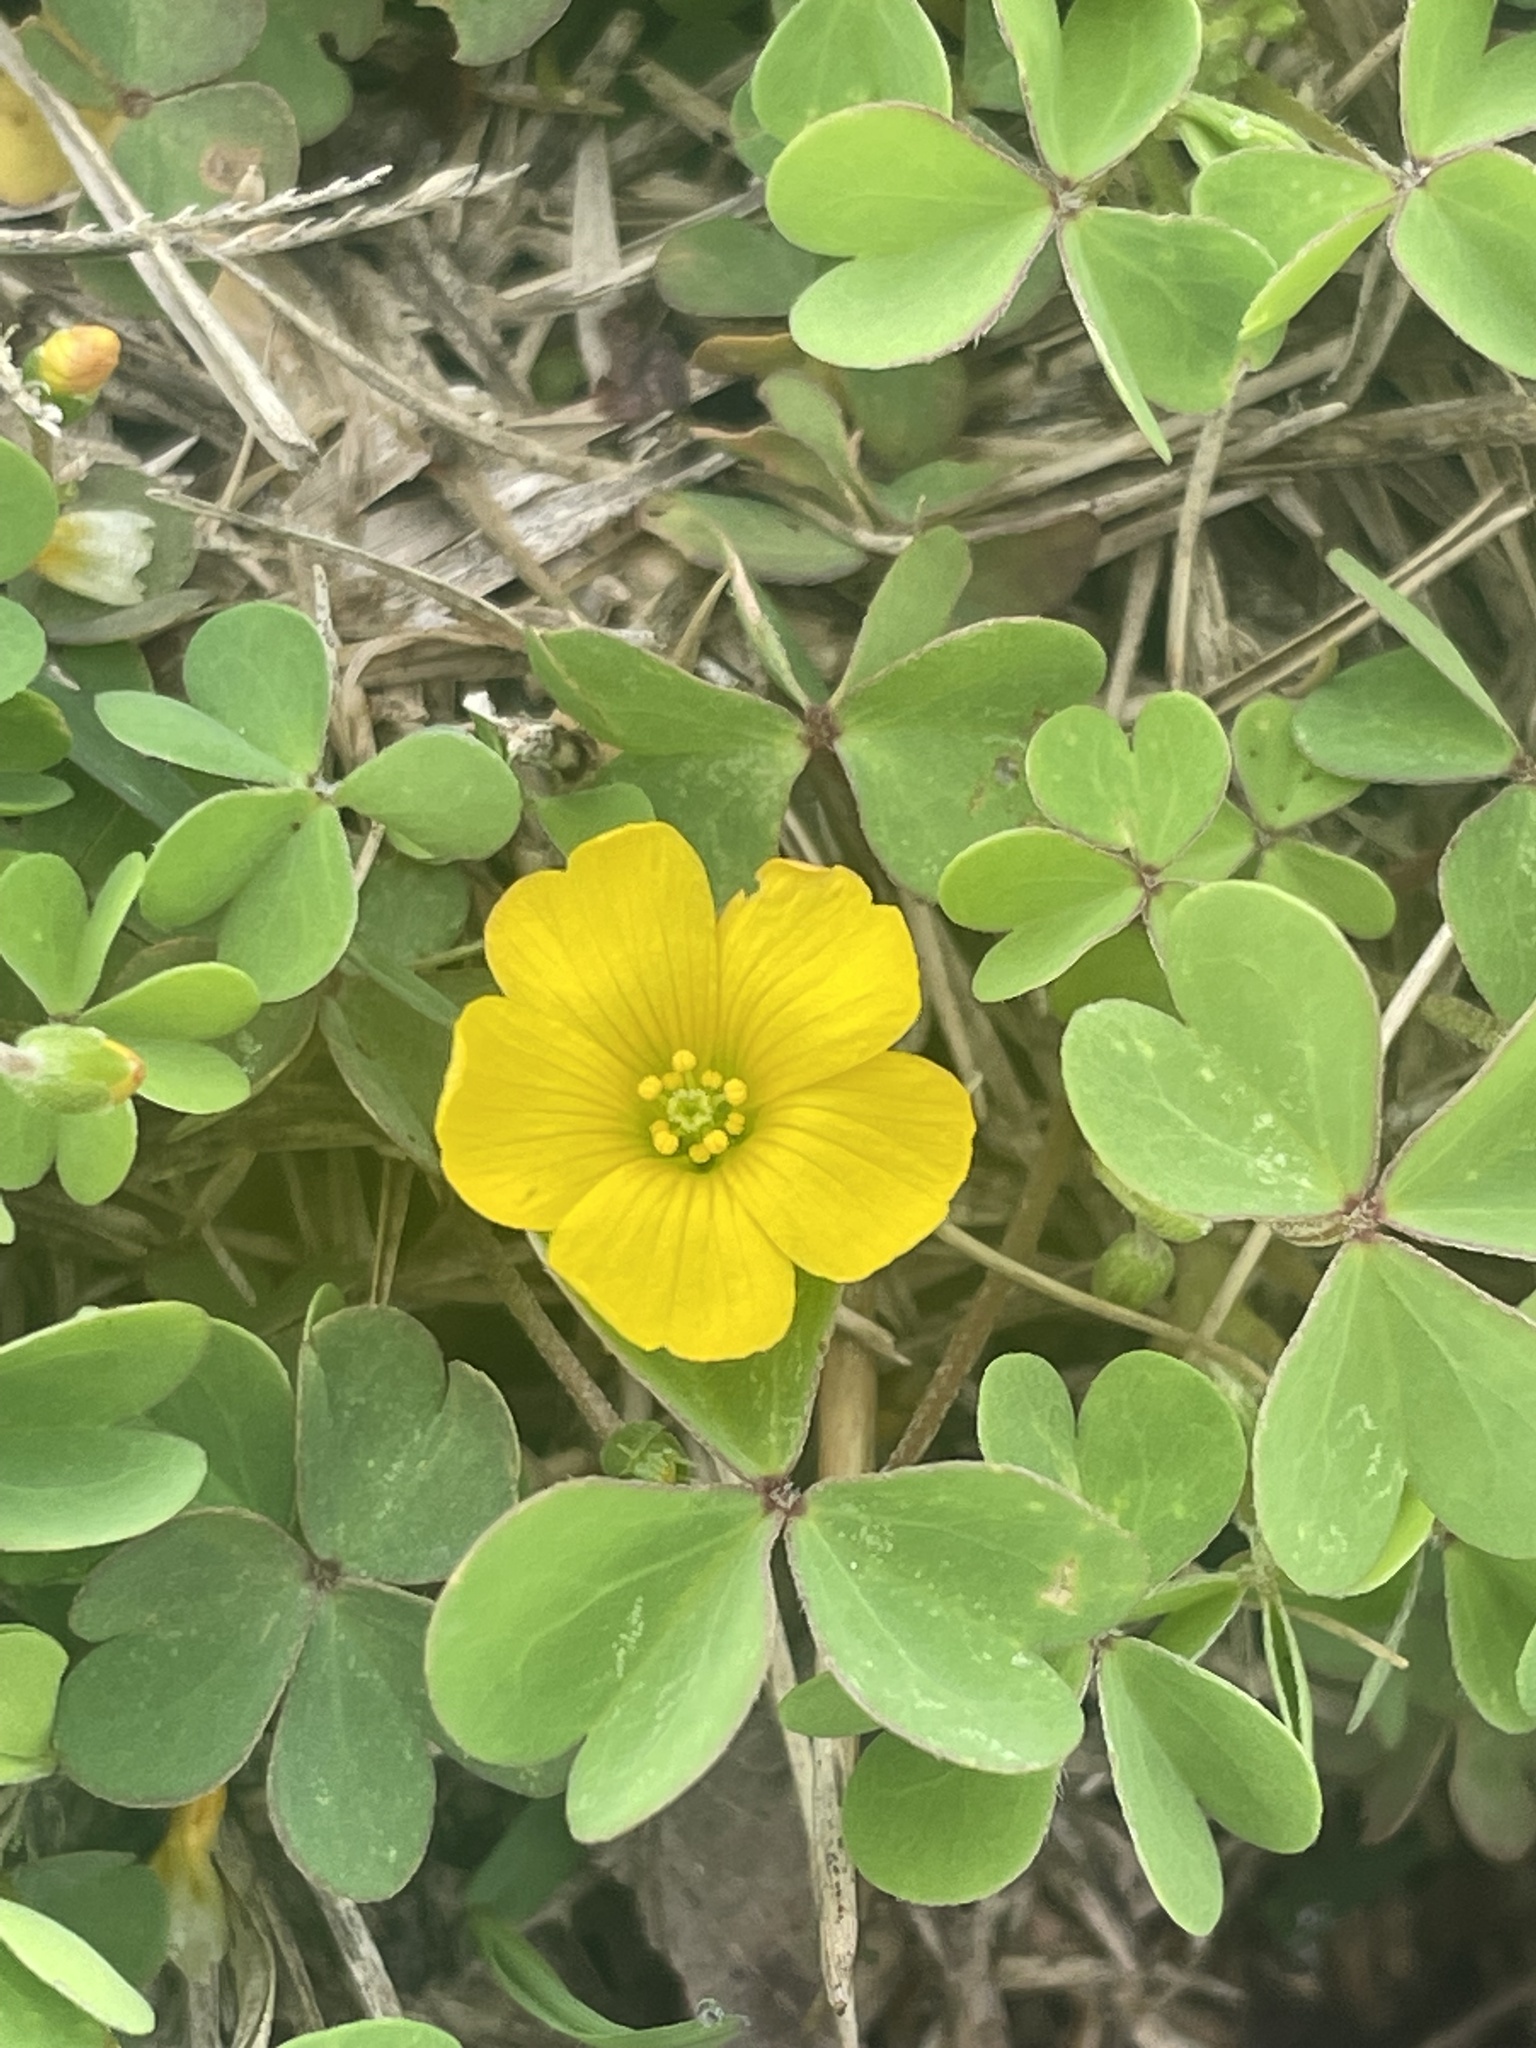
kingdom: Plantae
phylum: Tracheophyta
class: Magnoliopsida
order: Oxalidales
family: Oxalidaceae
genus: Oxalis
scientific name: Oxalis dillenii
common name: Sussex yellow-sorrel
